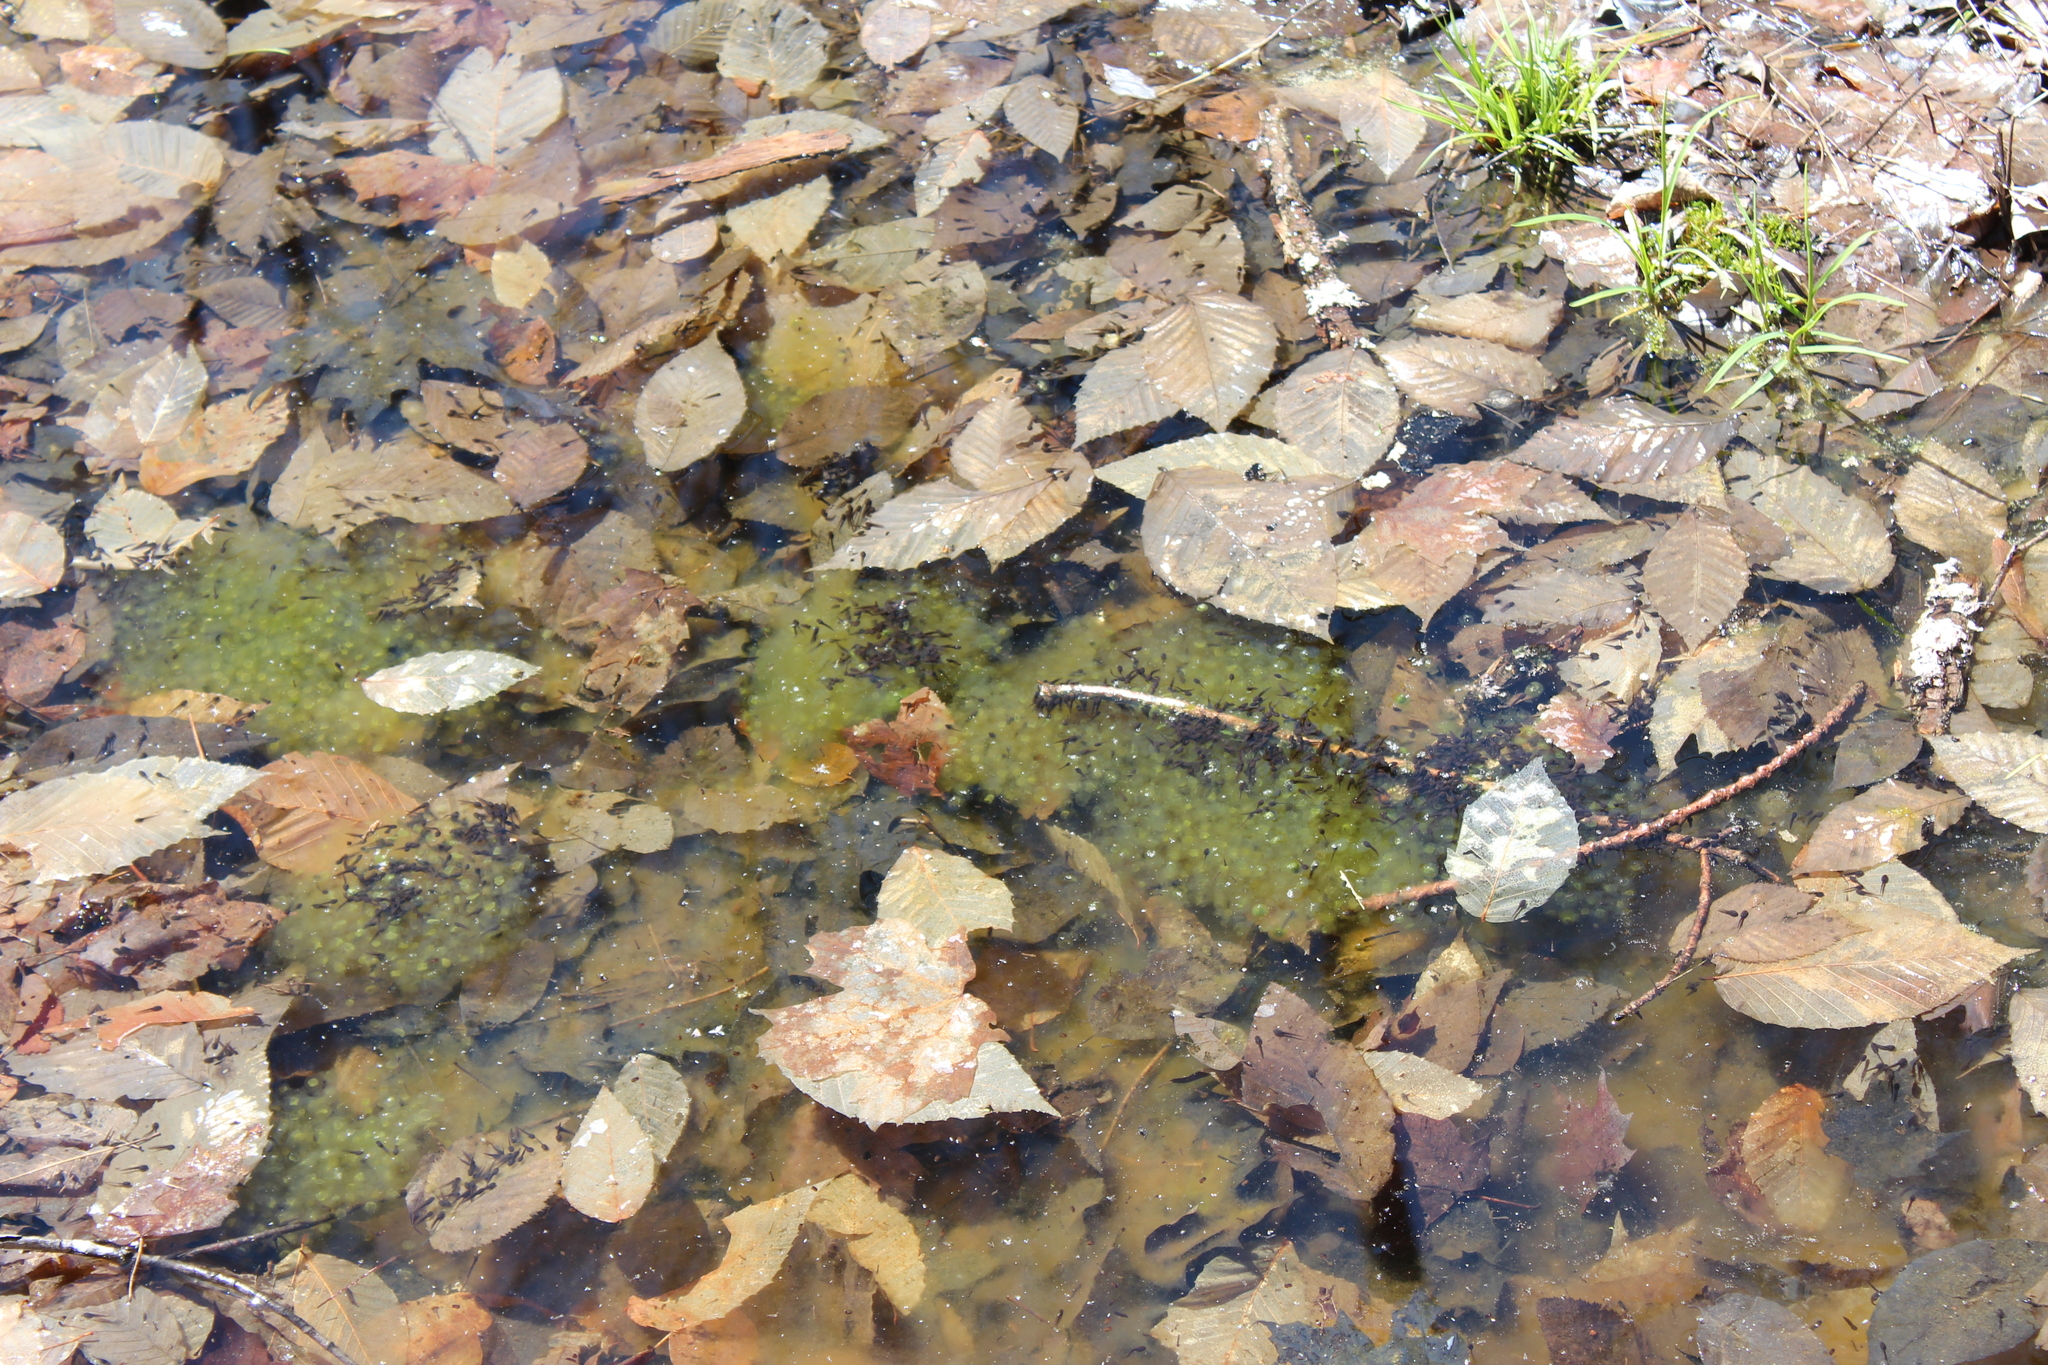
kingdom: Animalia
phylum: Chordata
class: Amphibia
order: Anura
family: Ranidae
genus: Lithobates
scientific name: Lithobates sylvaticus
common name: Wood frog
